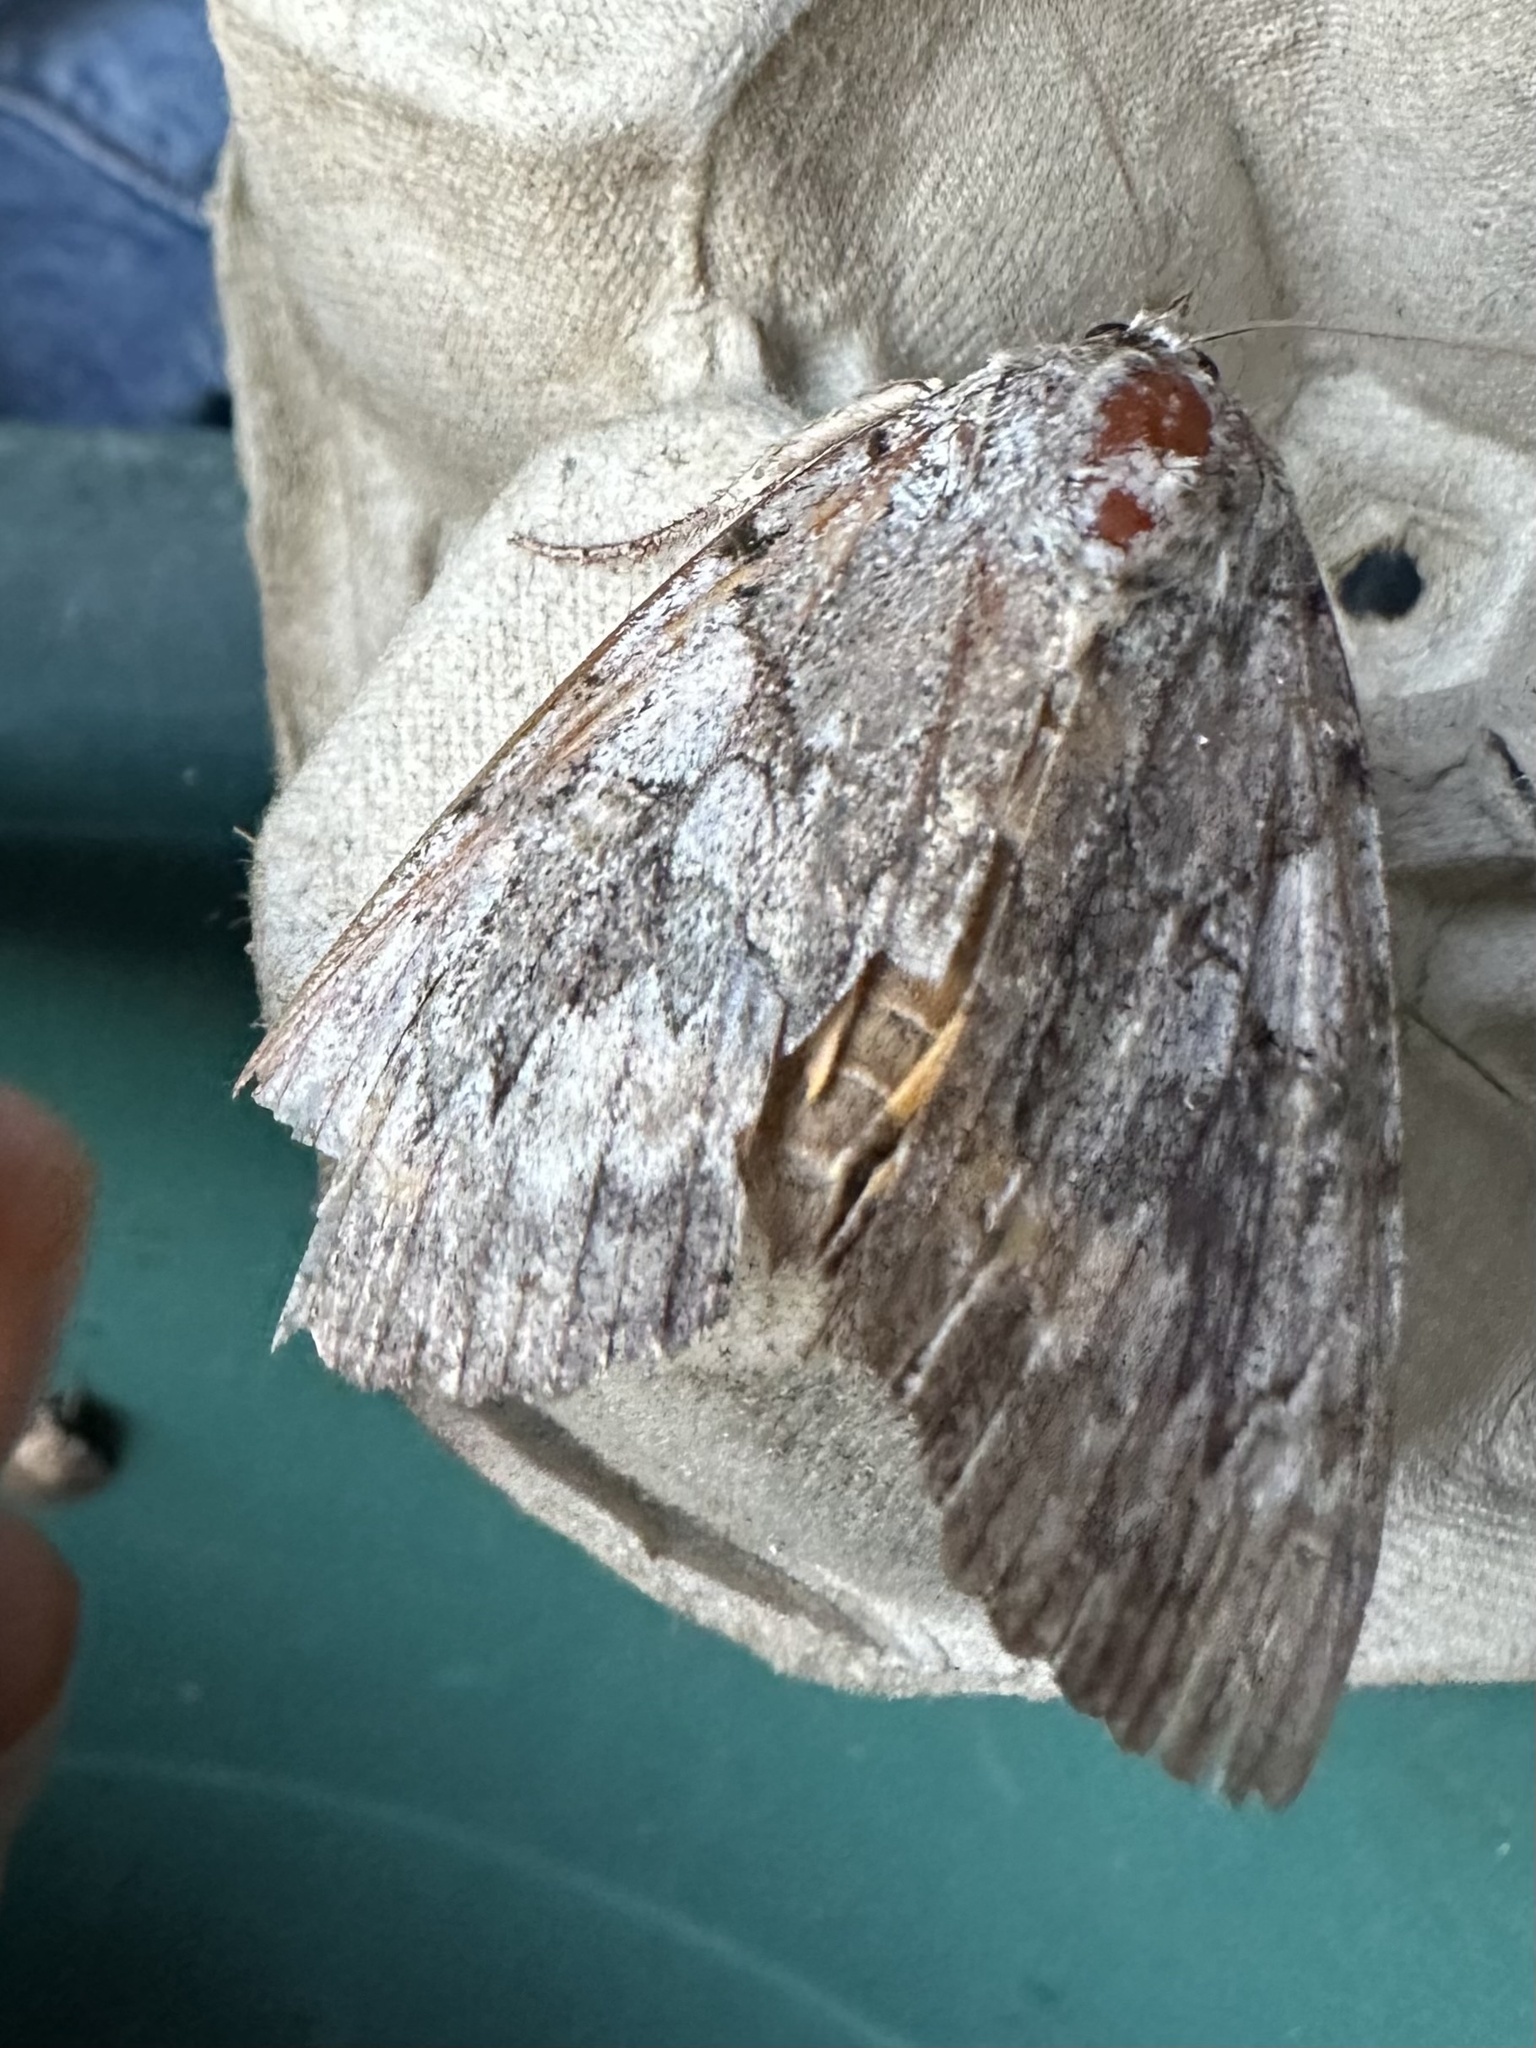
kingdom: Animalia
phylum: Arthropoda
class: Insecta
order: Lepidoptera
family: Erebidae
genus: Catocala
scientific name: Catocala subnata
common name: Youthful underwing
